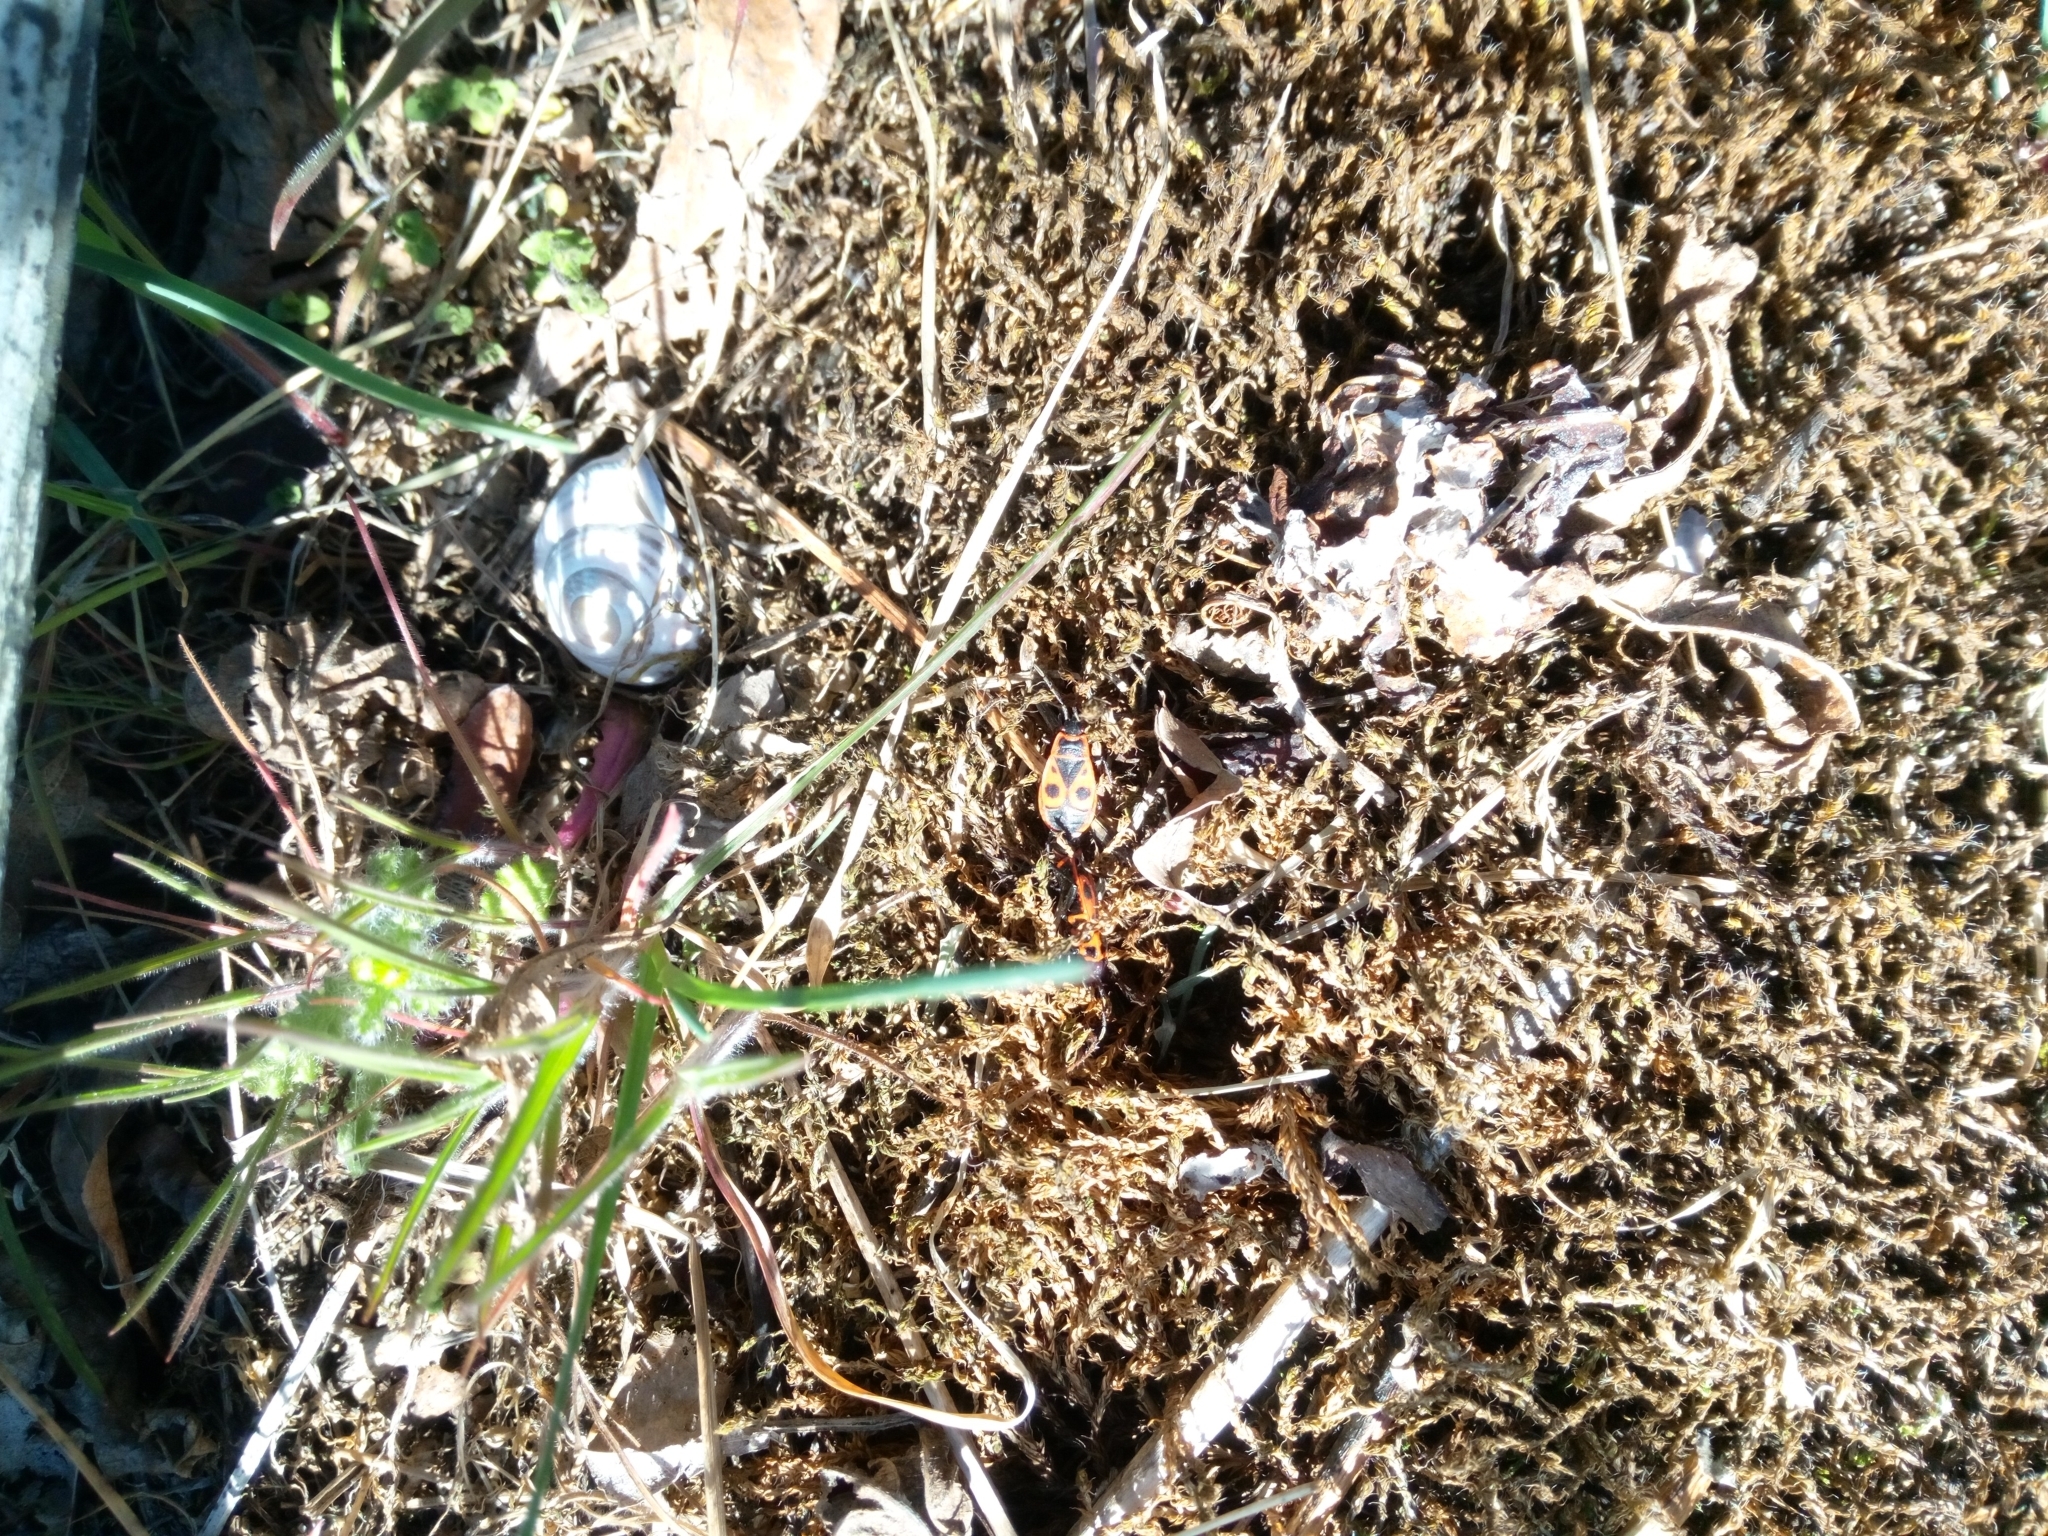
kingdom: Animalia
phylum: Arthropoda
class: Insecta
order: Hemiptera
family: Pyrrhocoridae
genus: Pyrrhocoris
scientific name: Pyrrhocoris apterus
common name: Firebug
